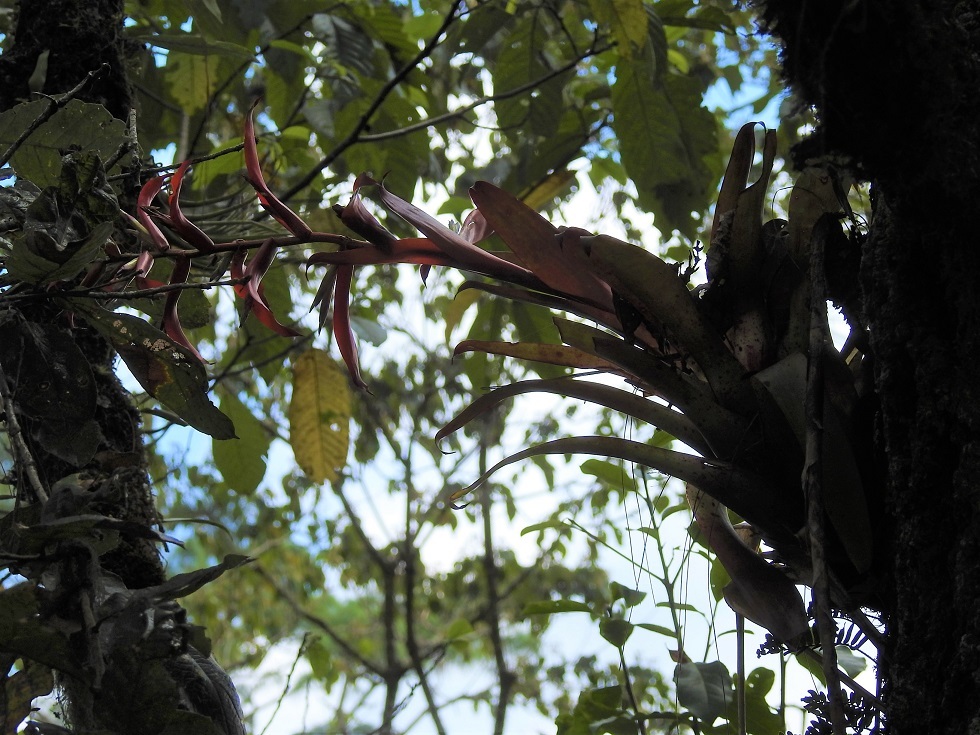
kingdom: Plantae
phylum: Tracheophyta
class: Liliopsida
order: Poales
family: Bromeliaceae
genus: Tillandsia
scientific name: Tillandsia leiboldiana
